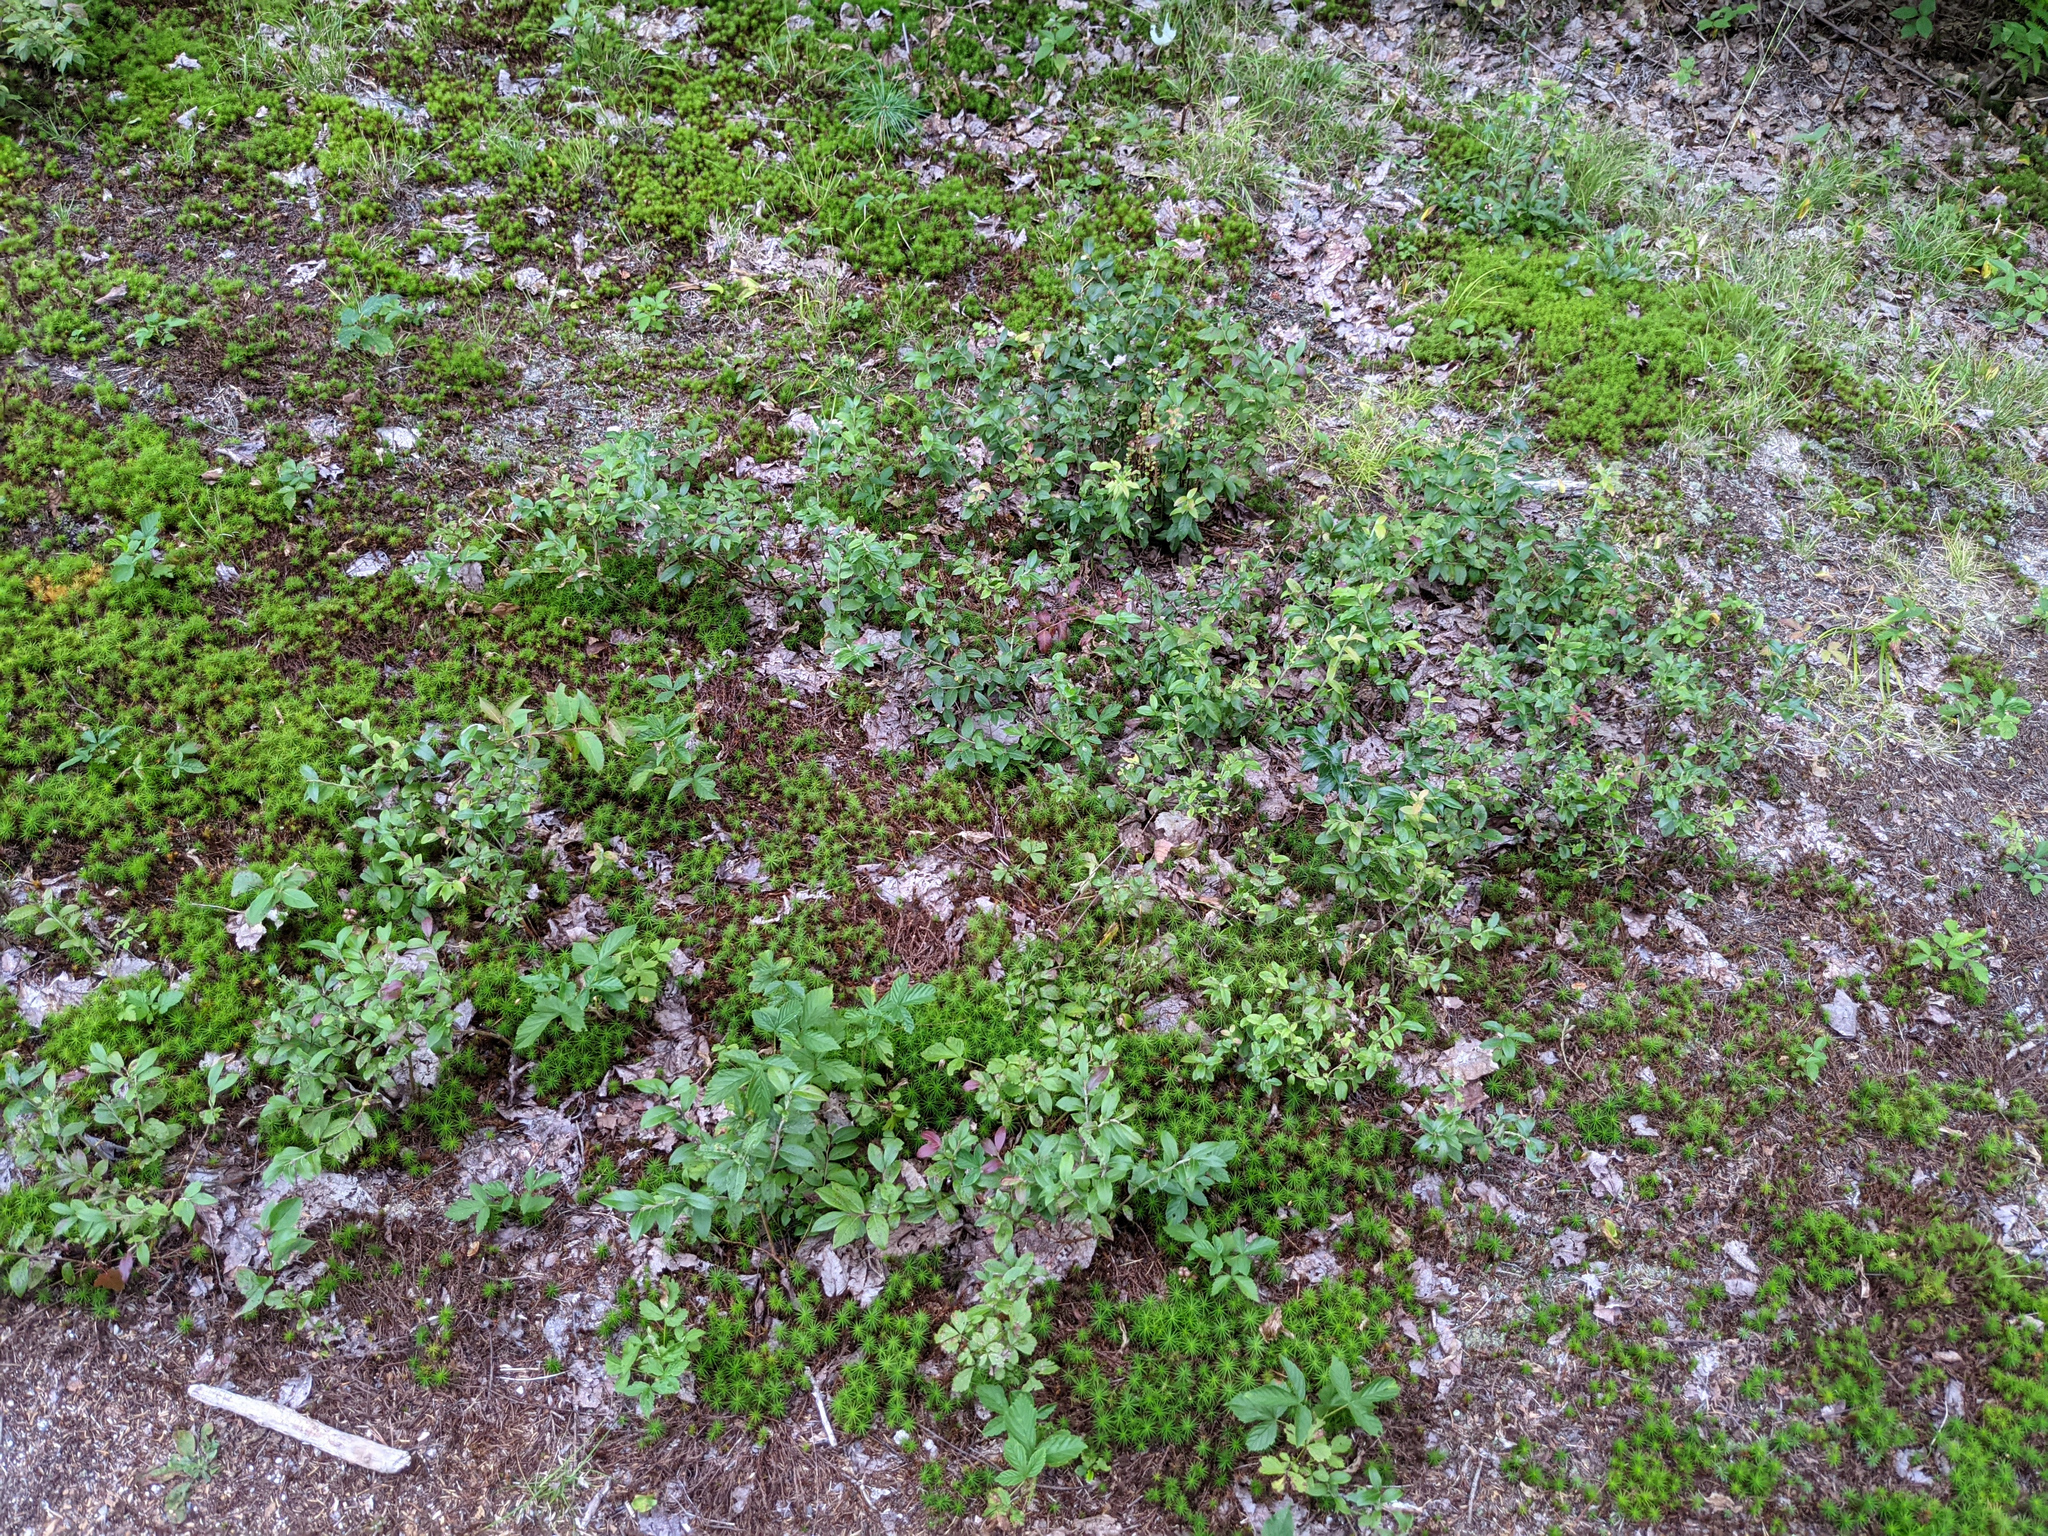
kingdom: Plantae
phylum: Tracheophyta
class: Magnoliopsida
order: Ericales
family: Ericaceae
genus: Vaccinium
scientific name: Vaccinium myrtilloides
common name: Canada blueberry
